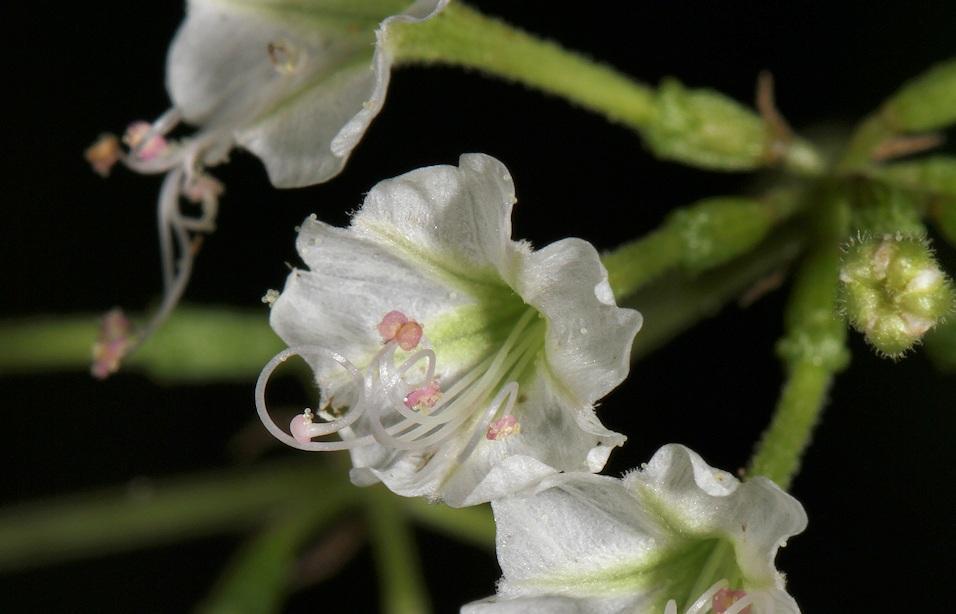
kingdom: Plantae
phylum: Tracheophyta
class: Magnoliopsida
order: Caryophyllales
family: Nyctaginaceae
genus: Commicarpus
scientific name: Commicarpus plumbagineus
